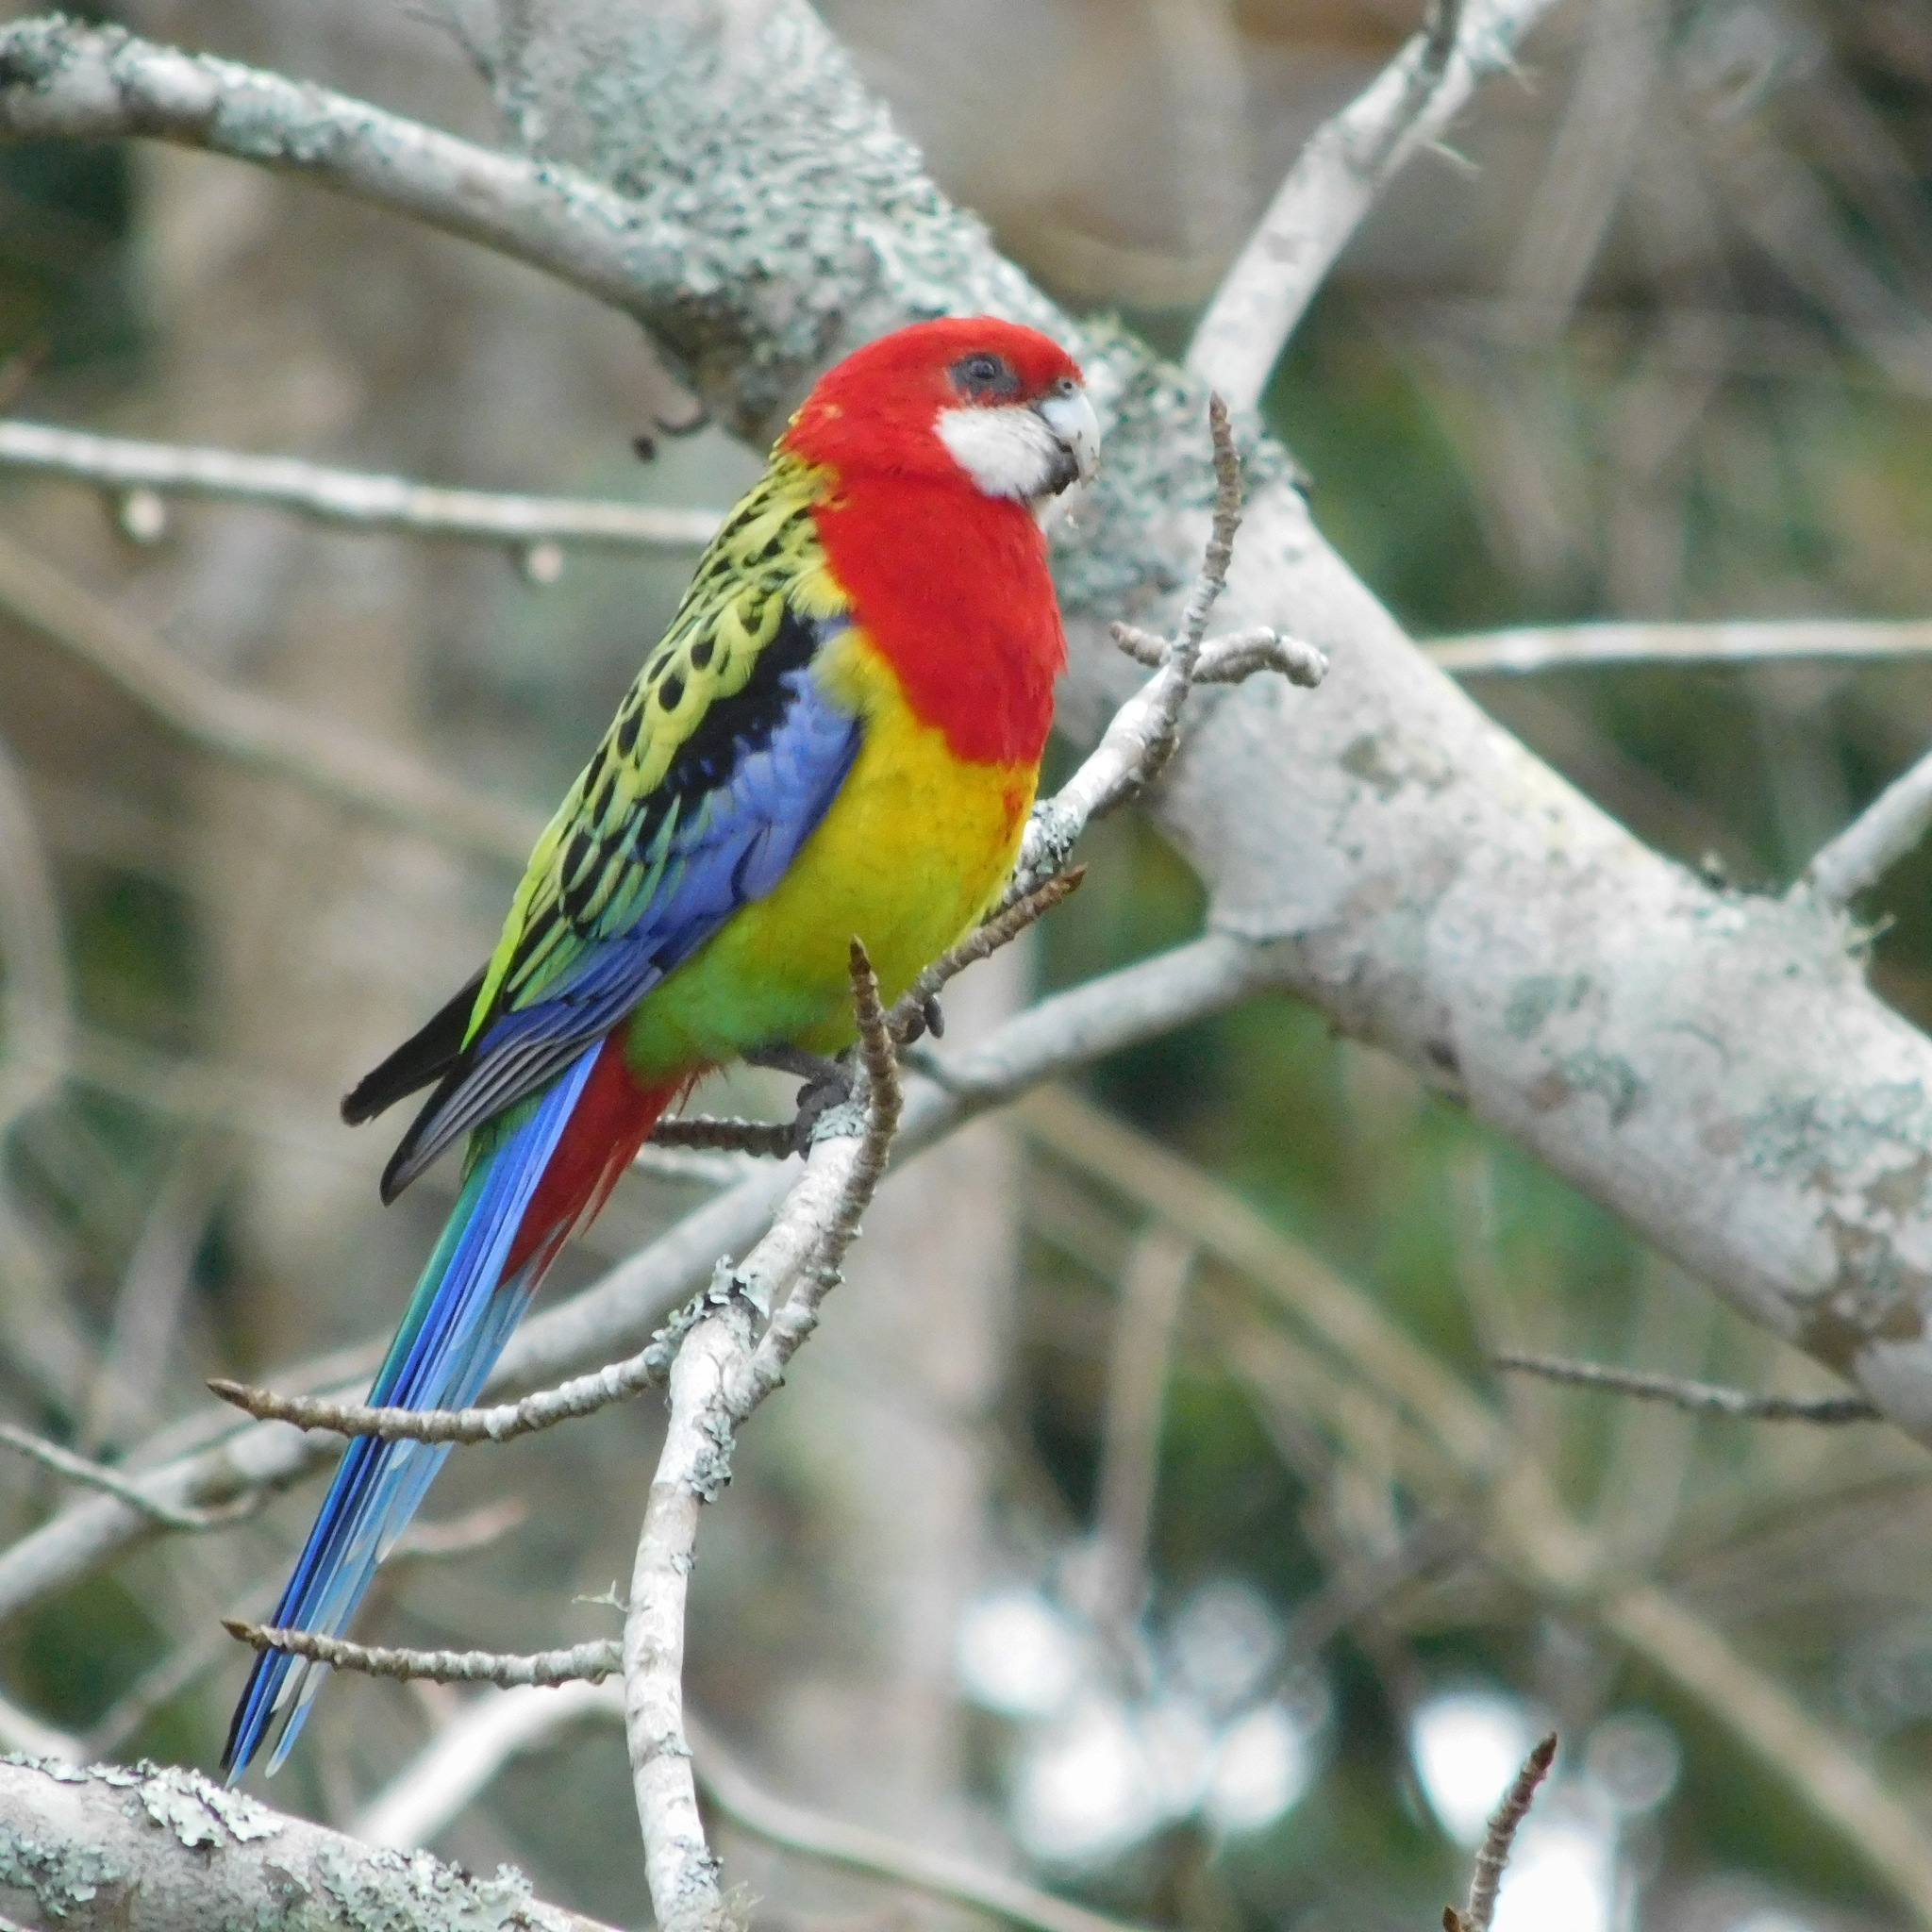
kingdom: Animalia
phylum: Chordata
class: Aves
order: Psittaciformes
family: Psittacidae
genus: Platycercus
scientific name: Platycercus eximius
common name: Eastern rosella
